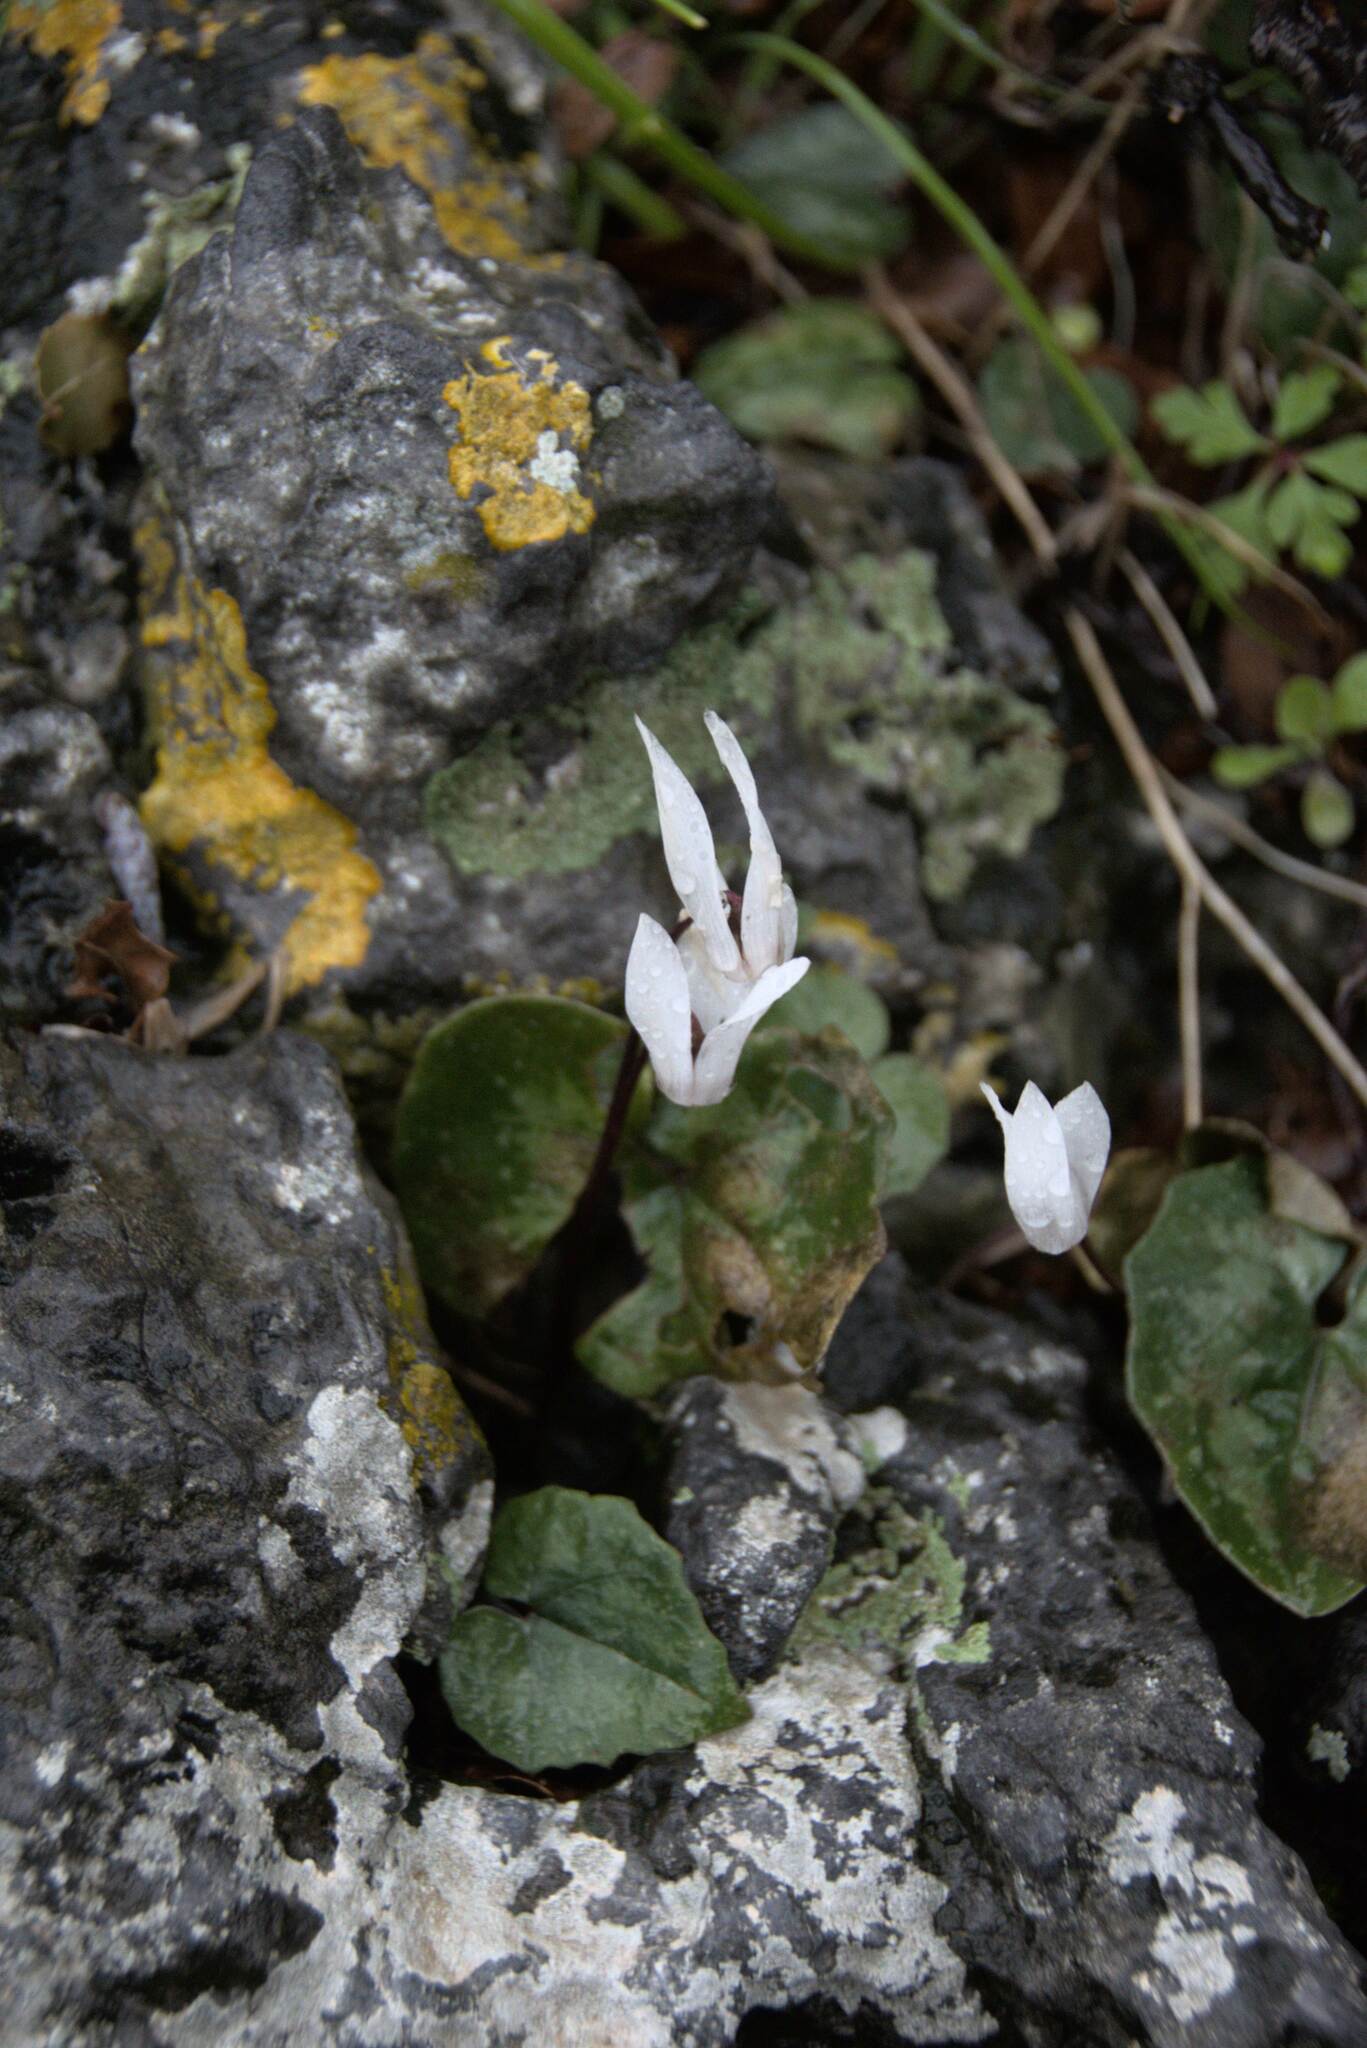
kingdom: Plantae
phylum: Tracheophyta
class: Magnoliopsida
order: Ericales
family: Primulaceae
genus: Cyclamen
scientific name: Cyclamen creticum
